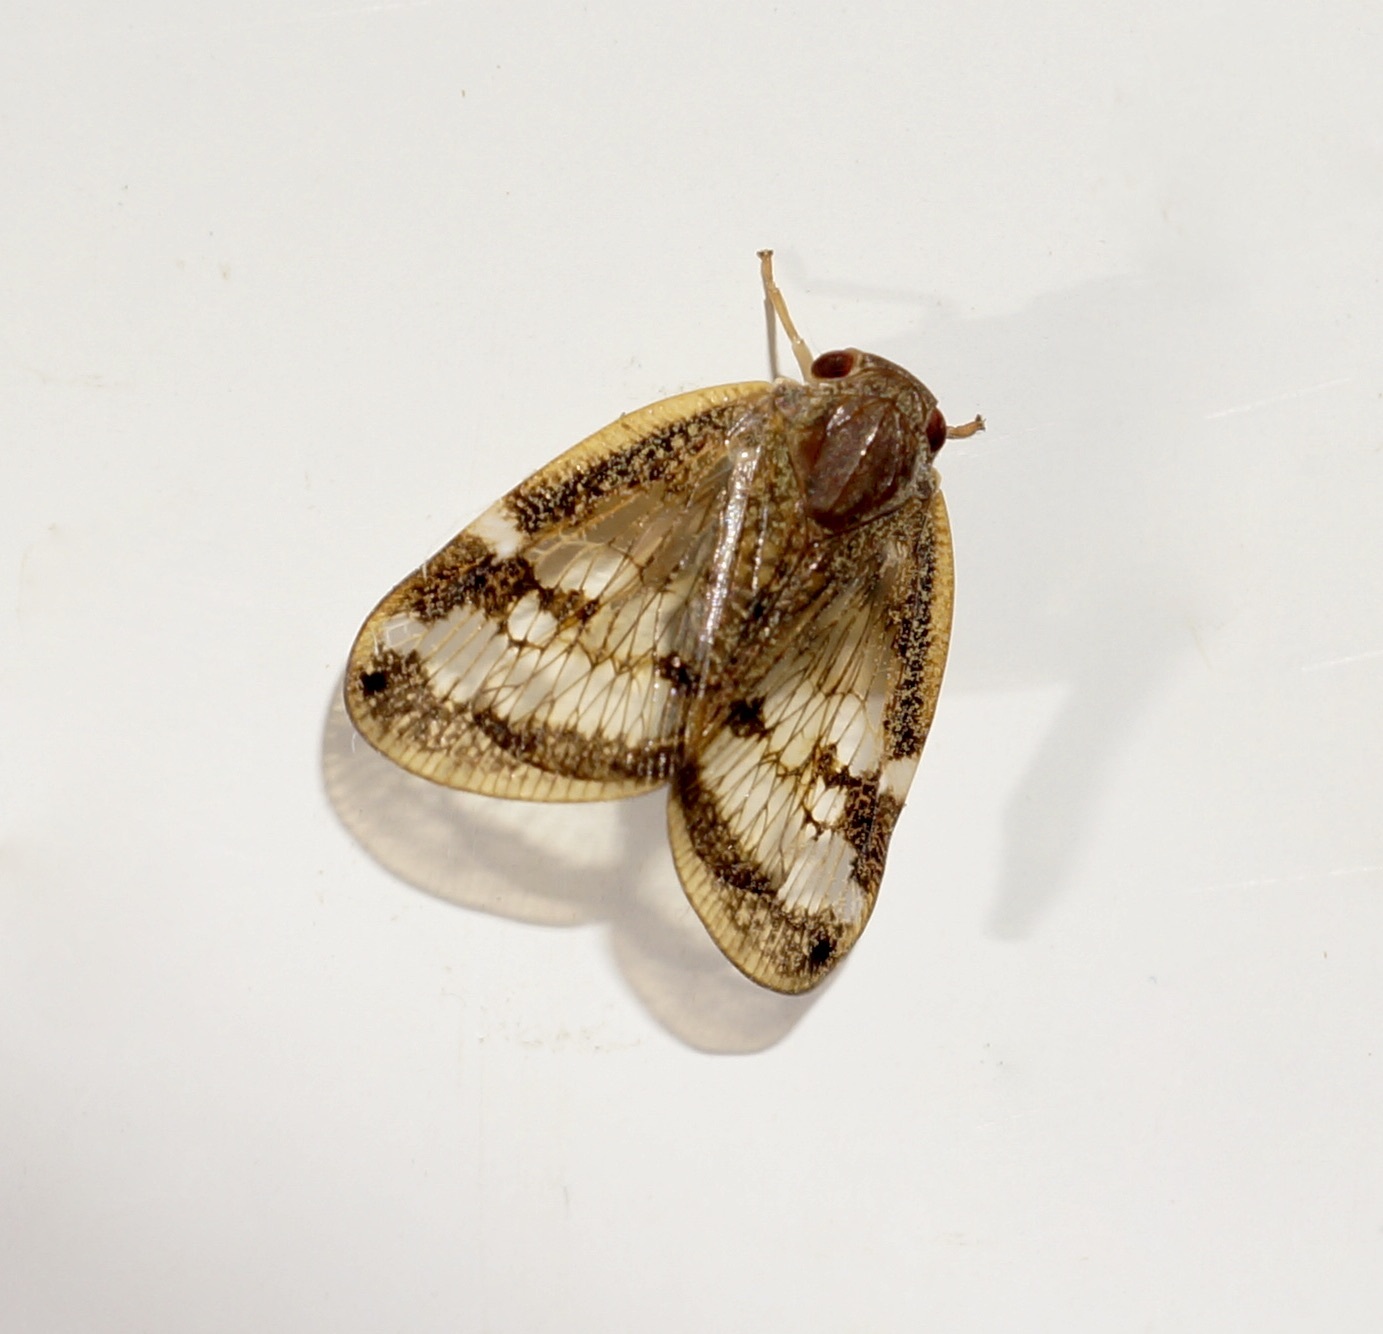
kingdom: Animalia
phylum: Arthropoda
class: Insecta
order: Hemiptera
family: Ricaniidae
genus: Scolypopa
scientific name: Scolypopa australis
